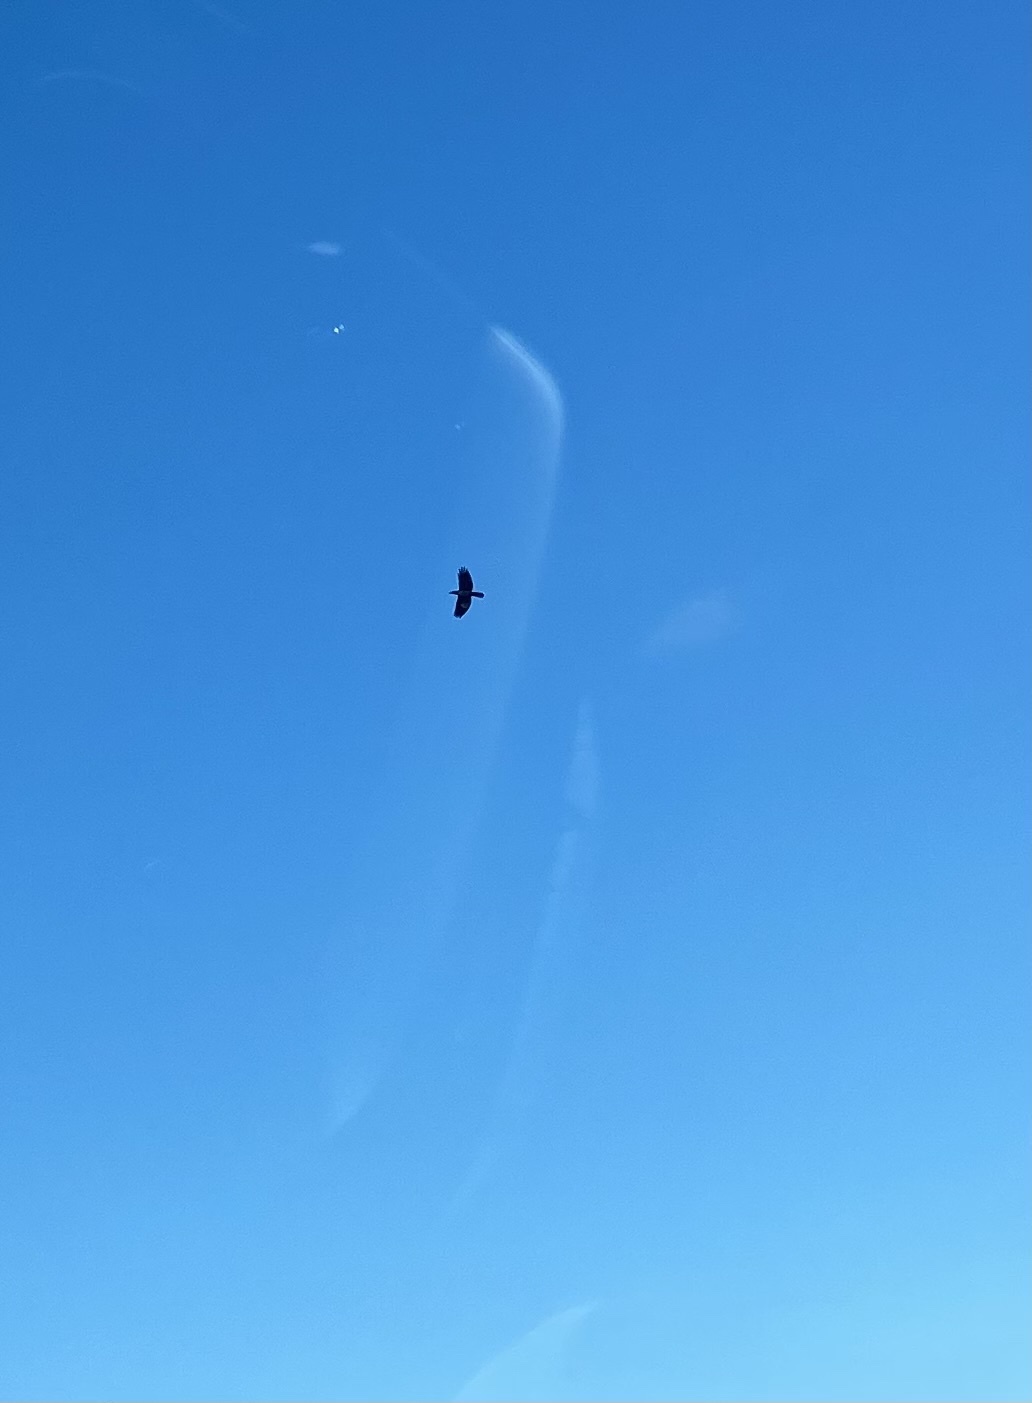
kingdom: Animalia
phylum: Chordata
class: Aves
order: Passeriformes
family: Corvidae
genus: Corvus
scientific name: Corvus cornix
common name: Hooded crow
